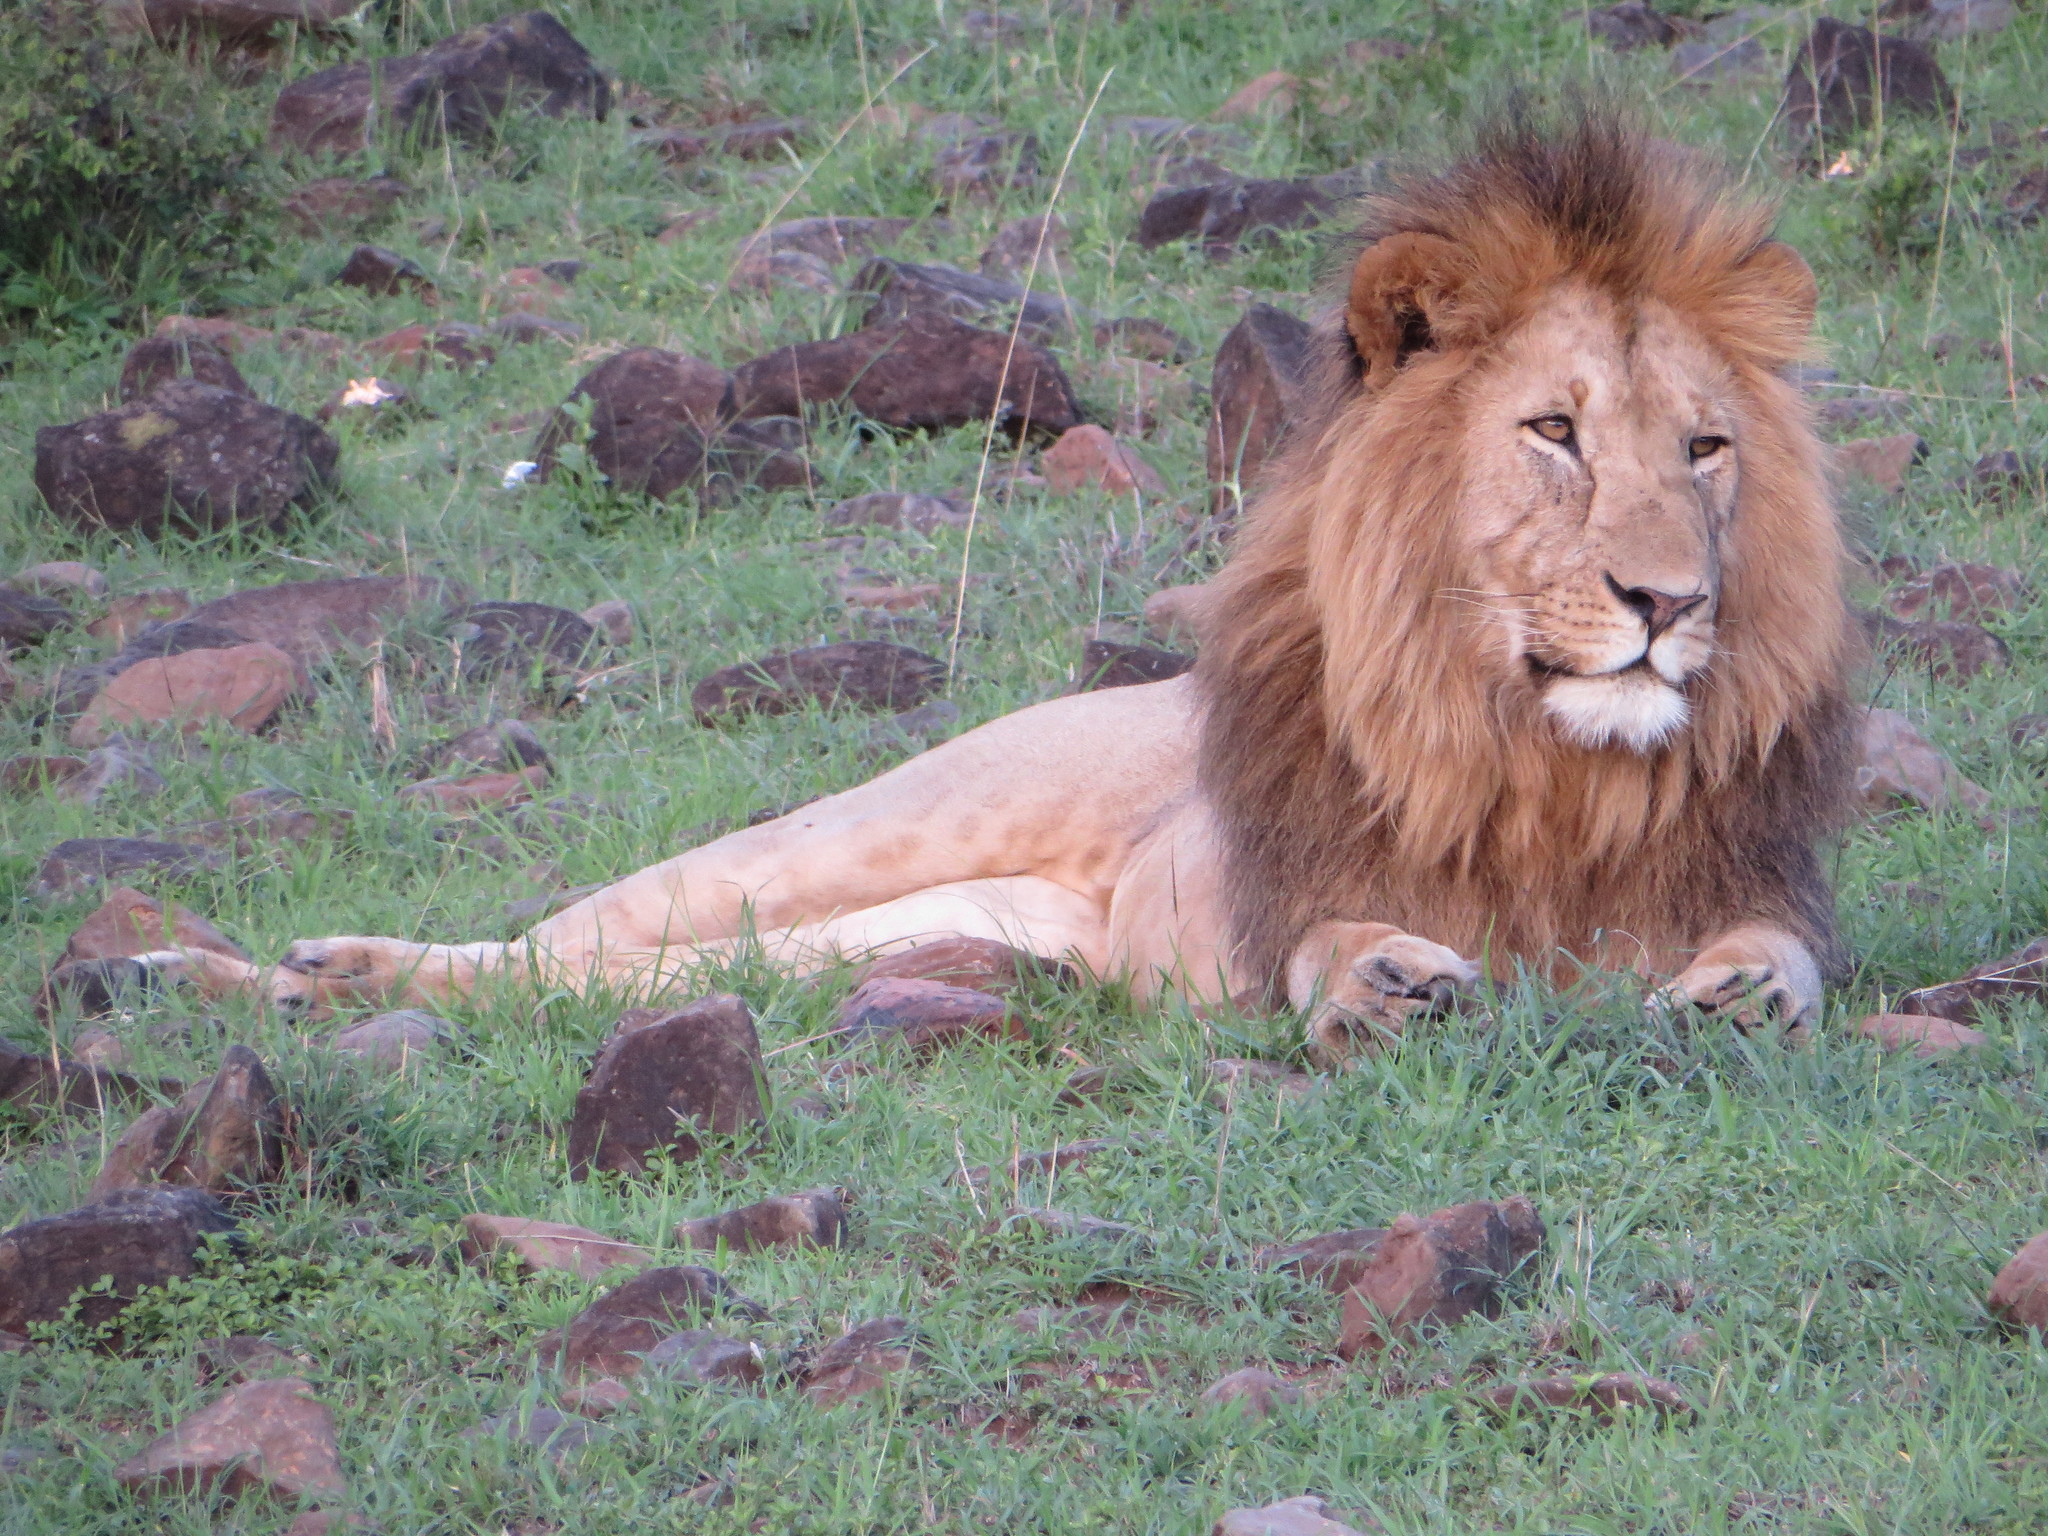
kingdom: Animalia
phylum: Chordata
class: Mammalia
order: Carnivora
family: Felidae
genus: Panthera
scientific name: Panthera leo
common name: Lion
